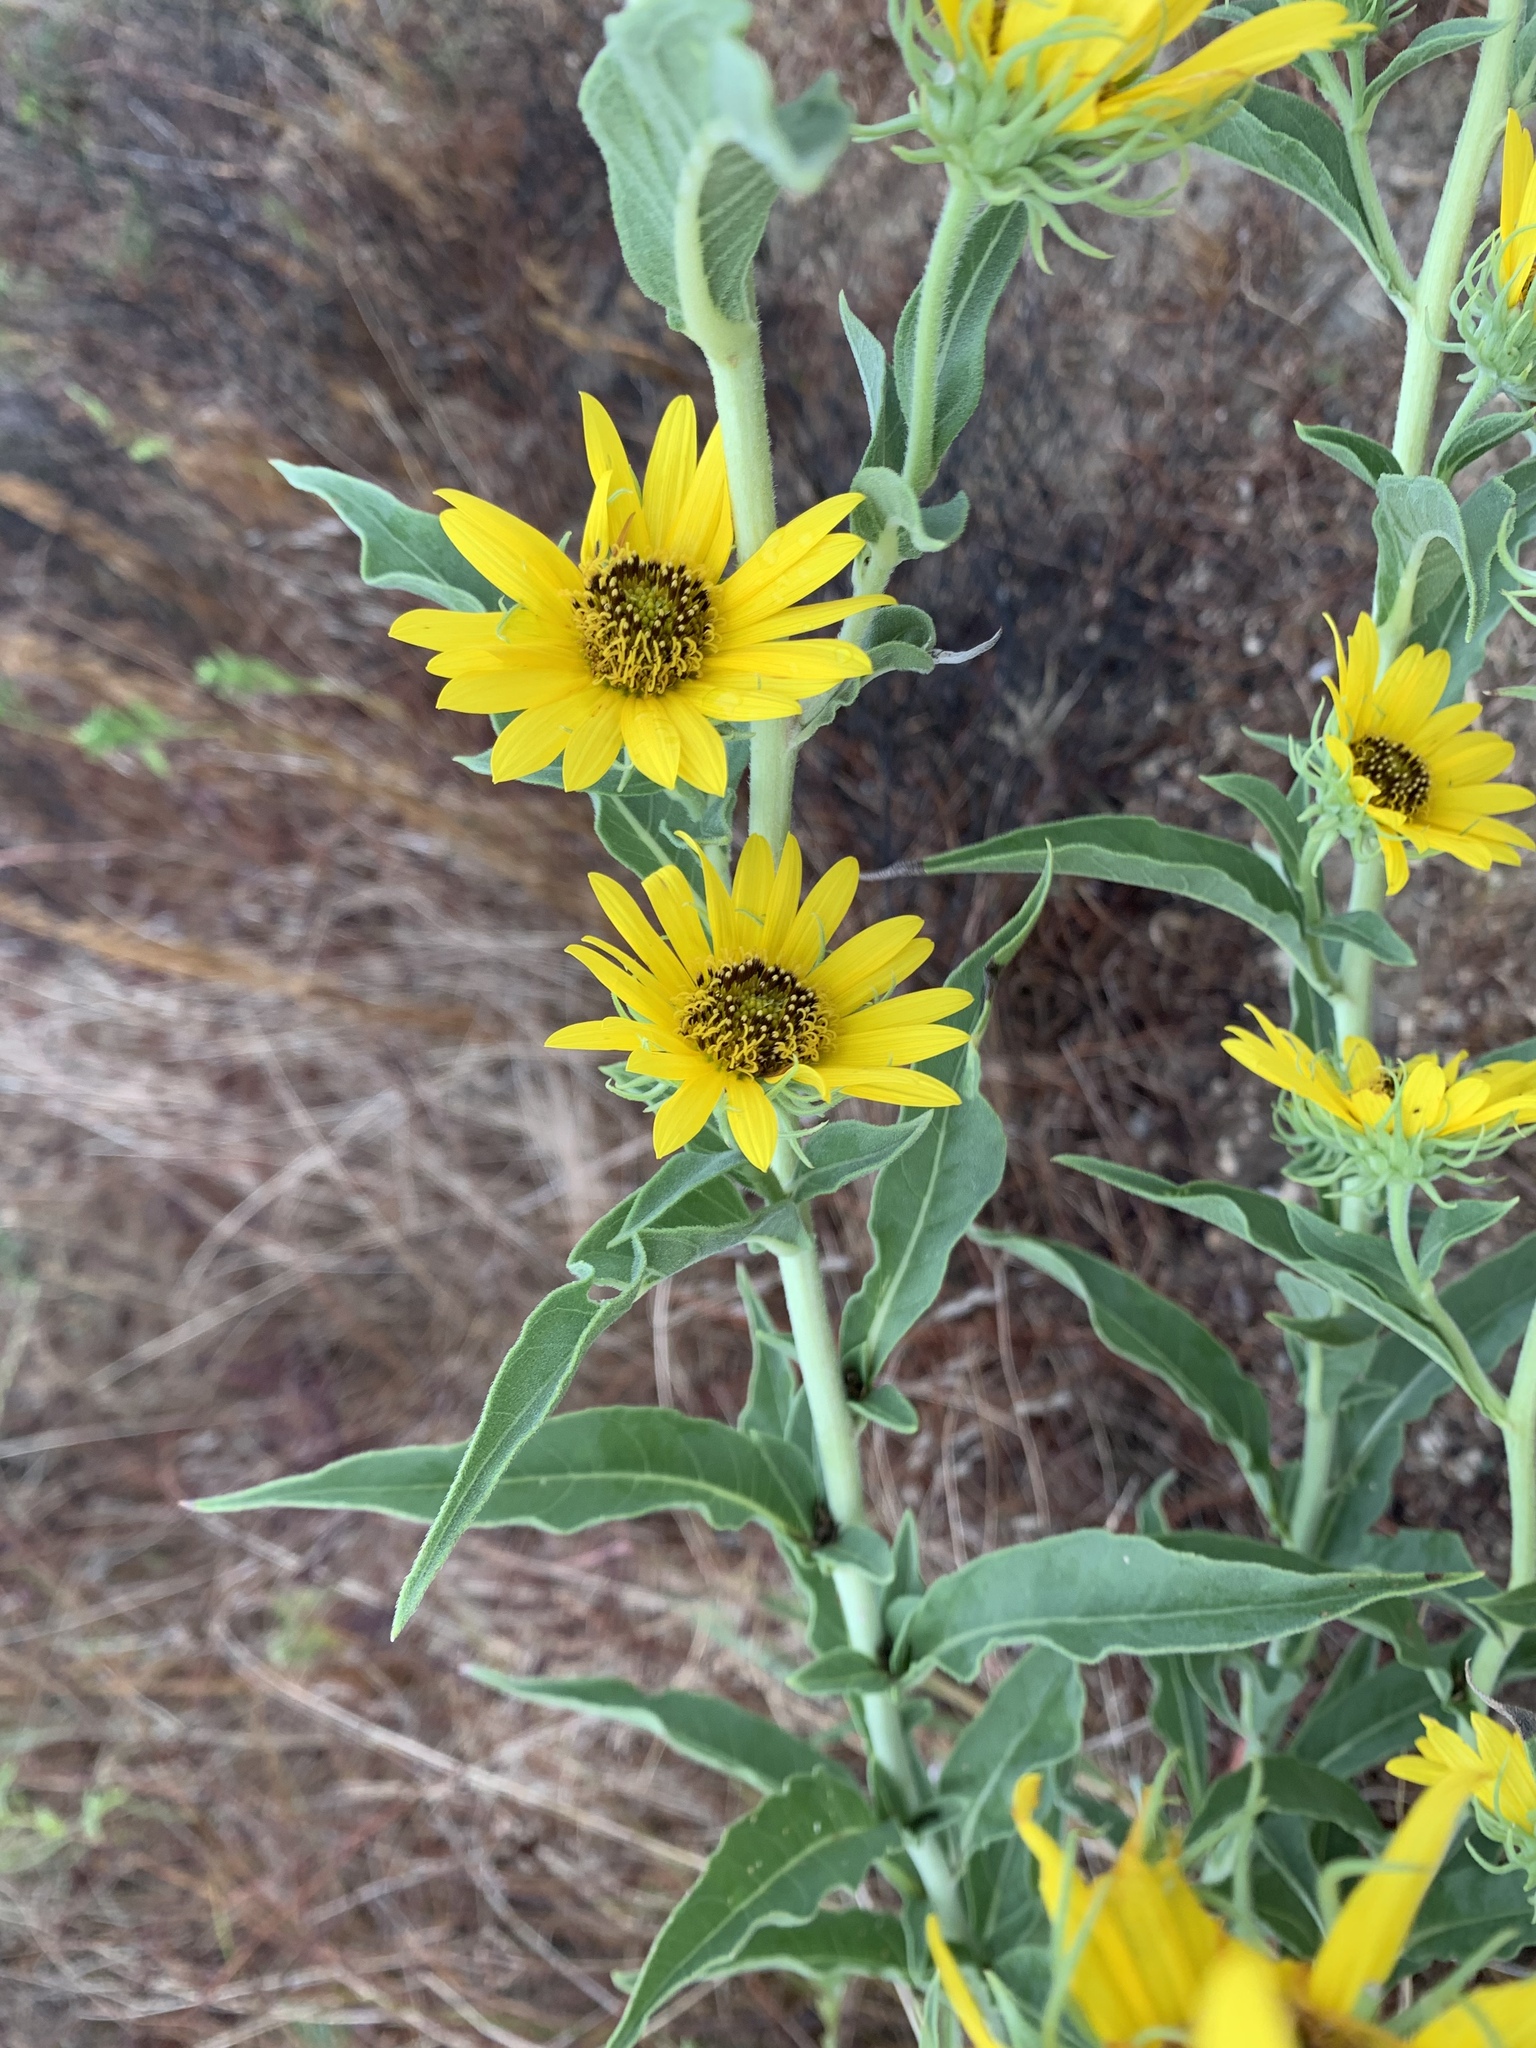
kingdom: Plantae
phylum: Tracheophyta
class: Magnoliopsida
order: Asterales
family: Asteraceae
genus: Helianthus
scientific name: Helianthus maximiliani
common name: Maximilian's sunflower
